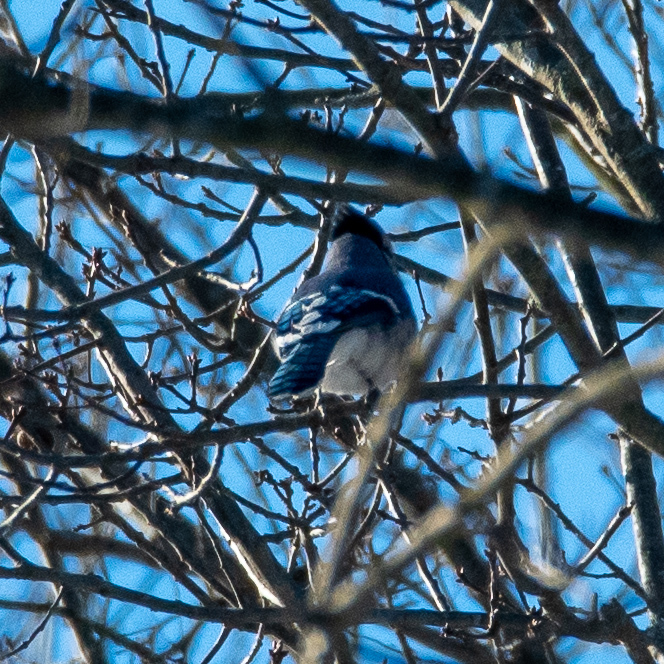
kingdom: Animalia
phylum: Chordata
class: Aves
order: Passeriformes
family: Corvidae
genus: Cyanocitta
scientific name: Cyanocitta cristata
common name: Blue jay
